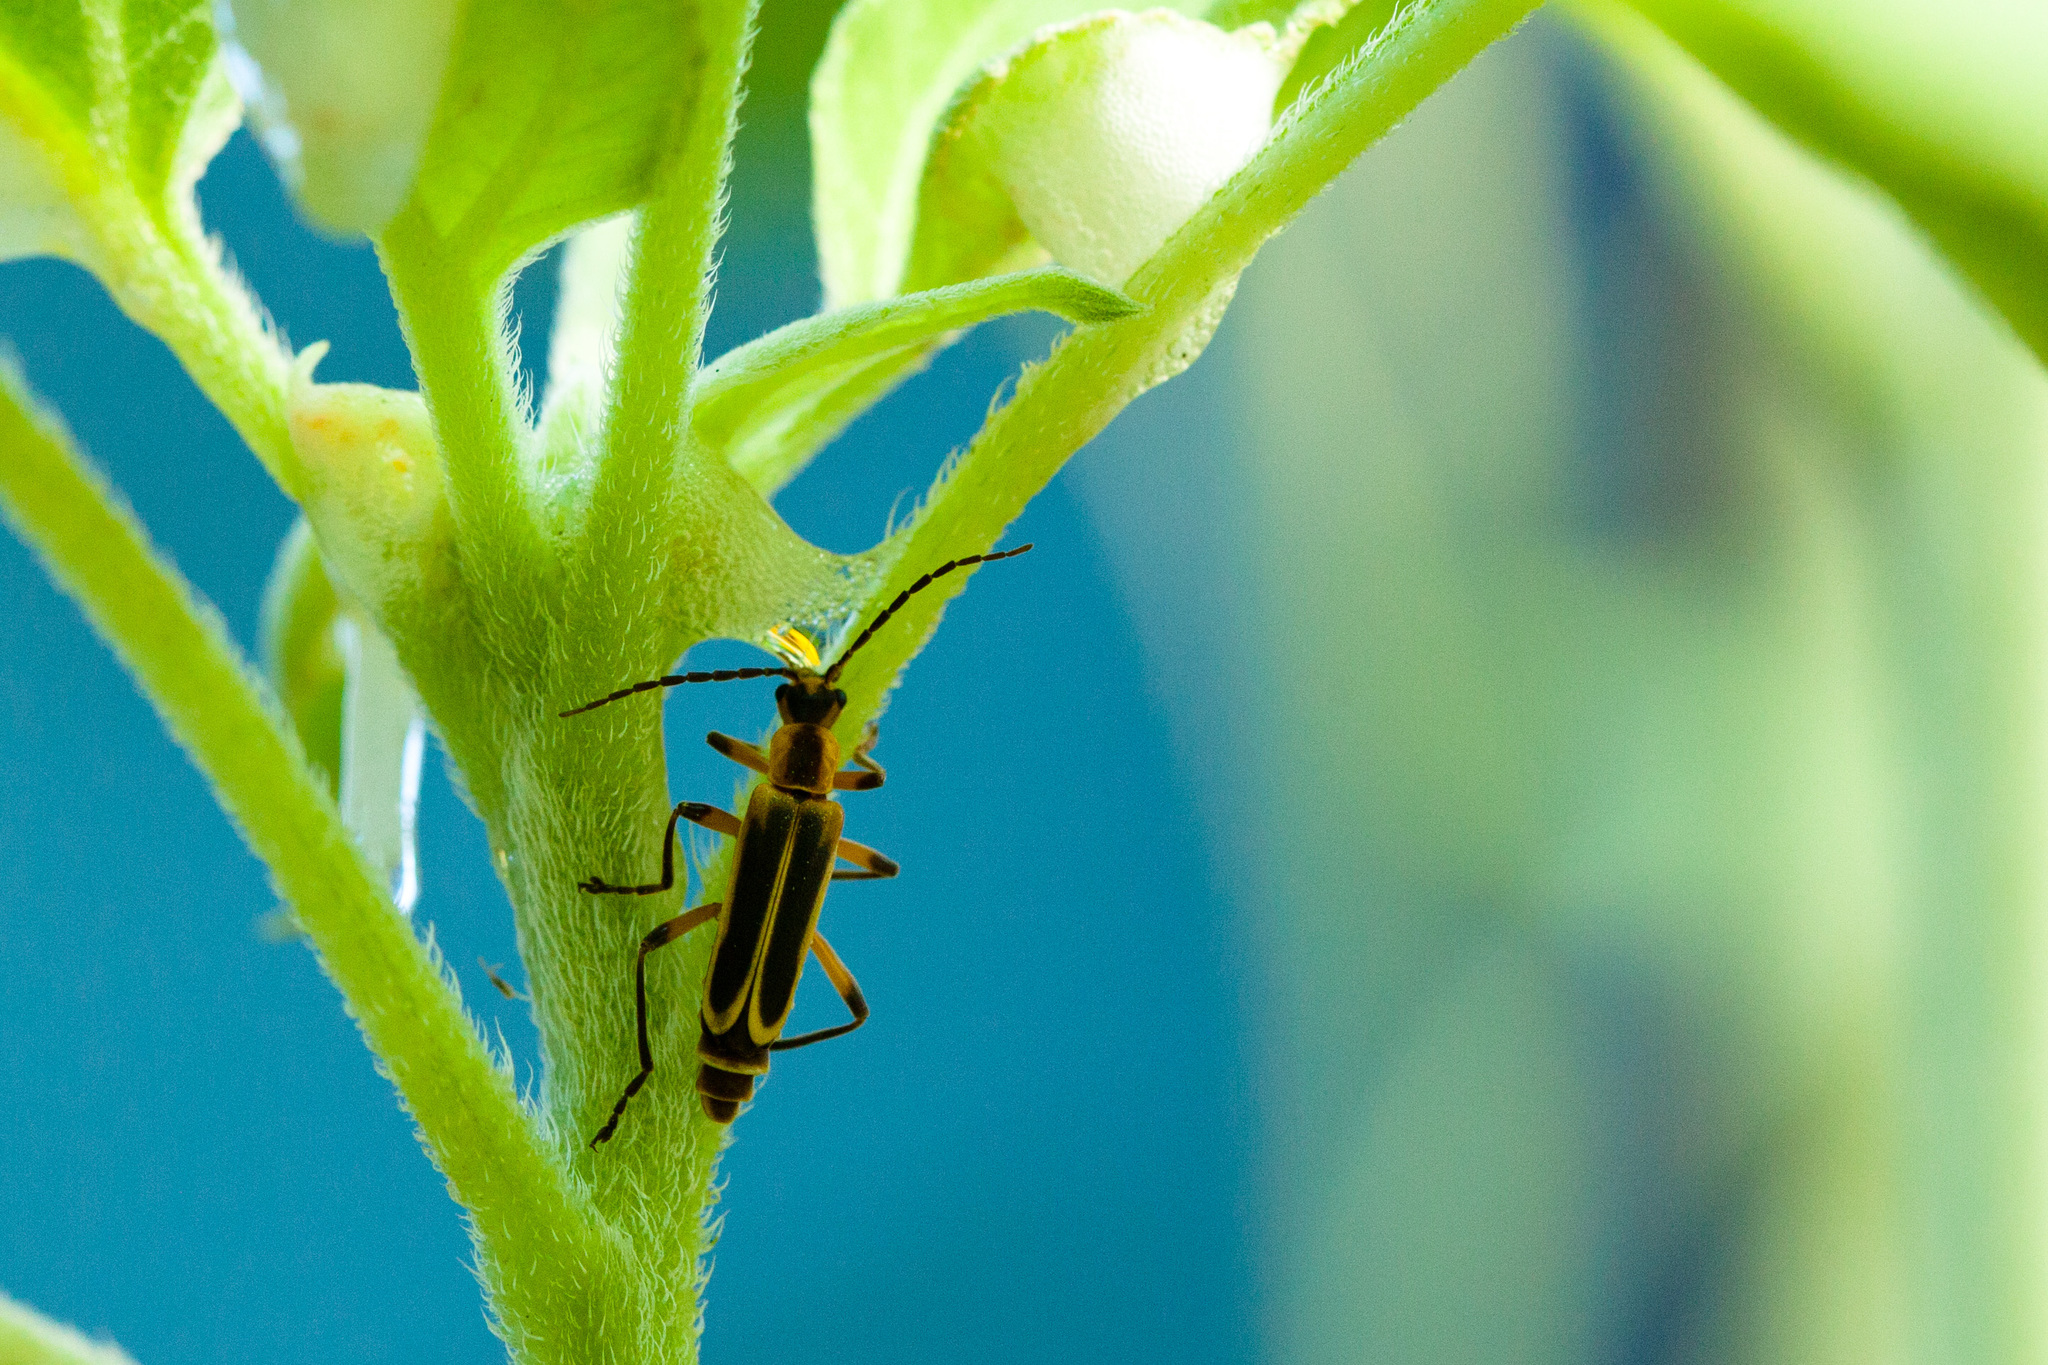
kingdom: Animalia
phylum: Arthropoda
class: Insecta
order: Coleoptera
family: Cantharidae
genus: Chauliognathus
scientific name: Chauliognathus marginatus
